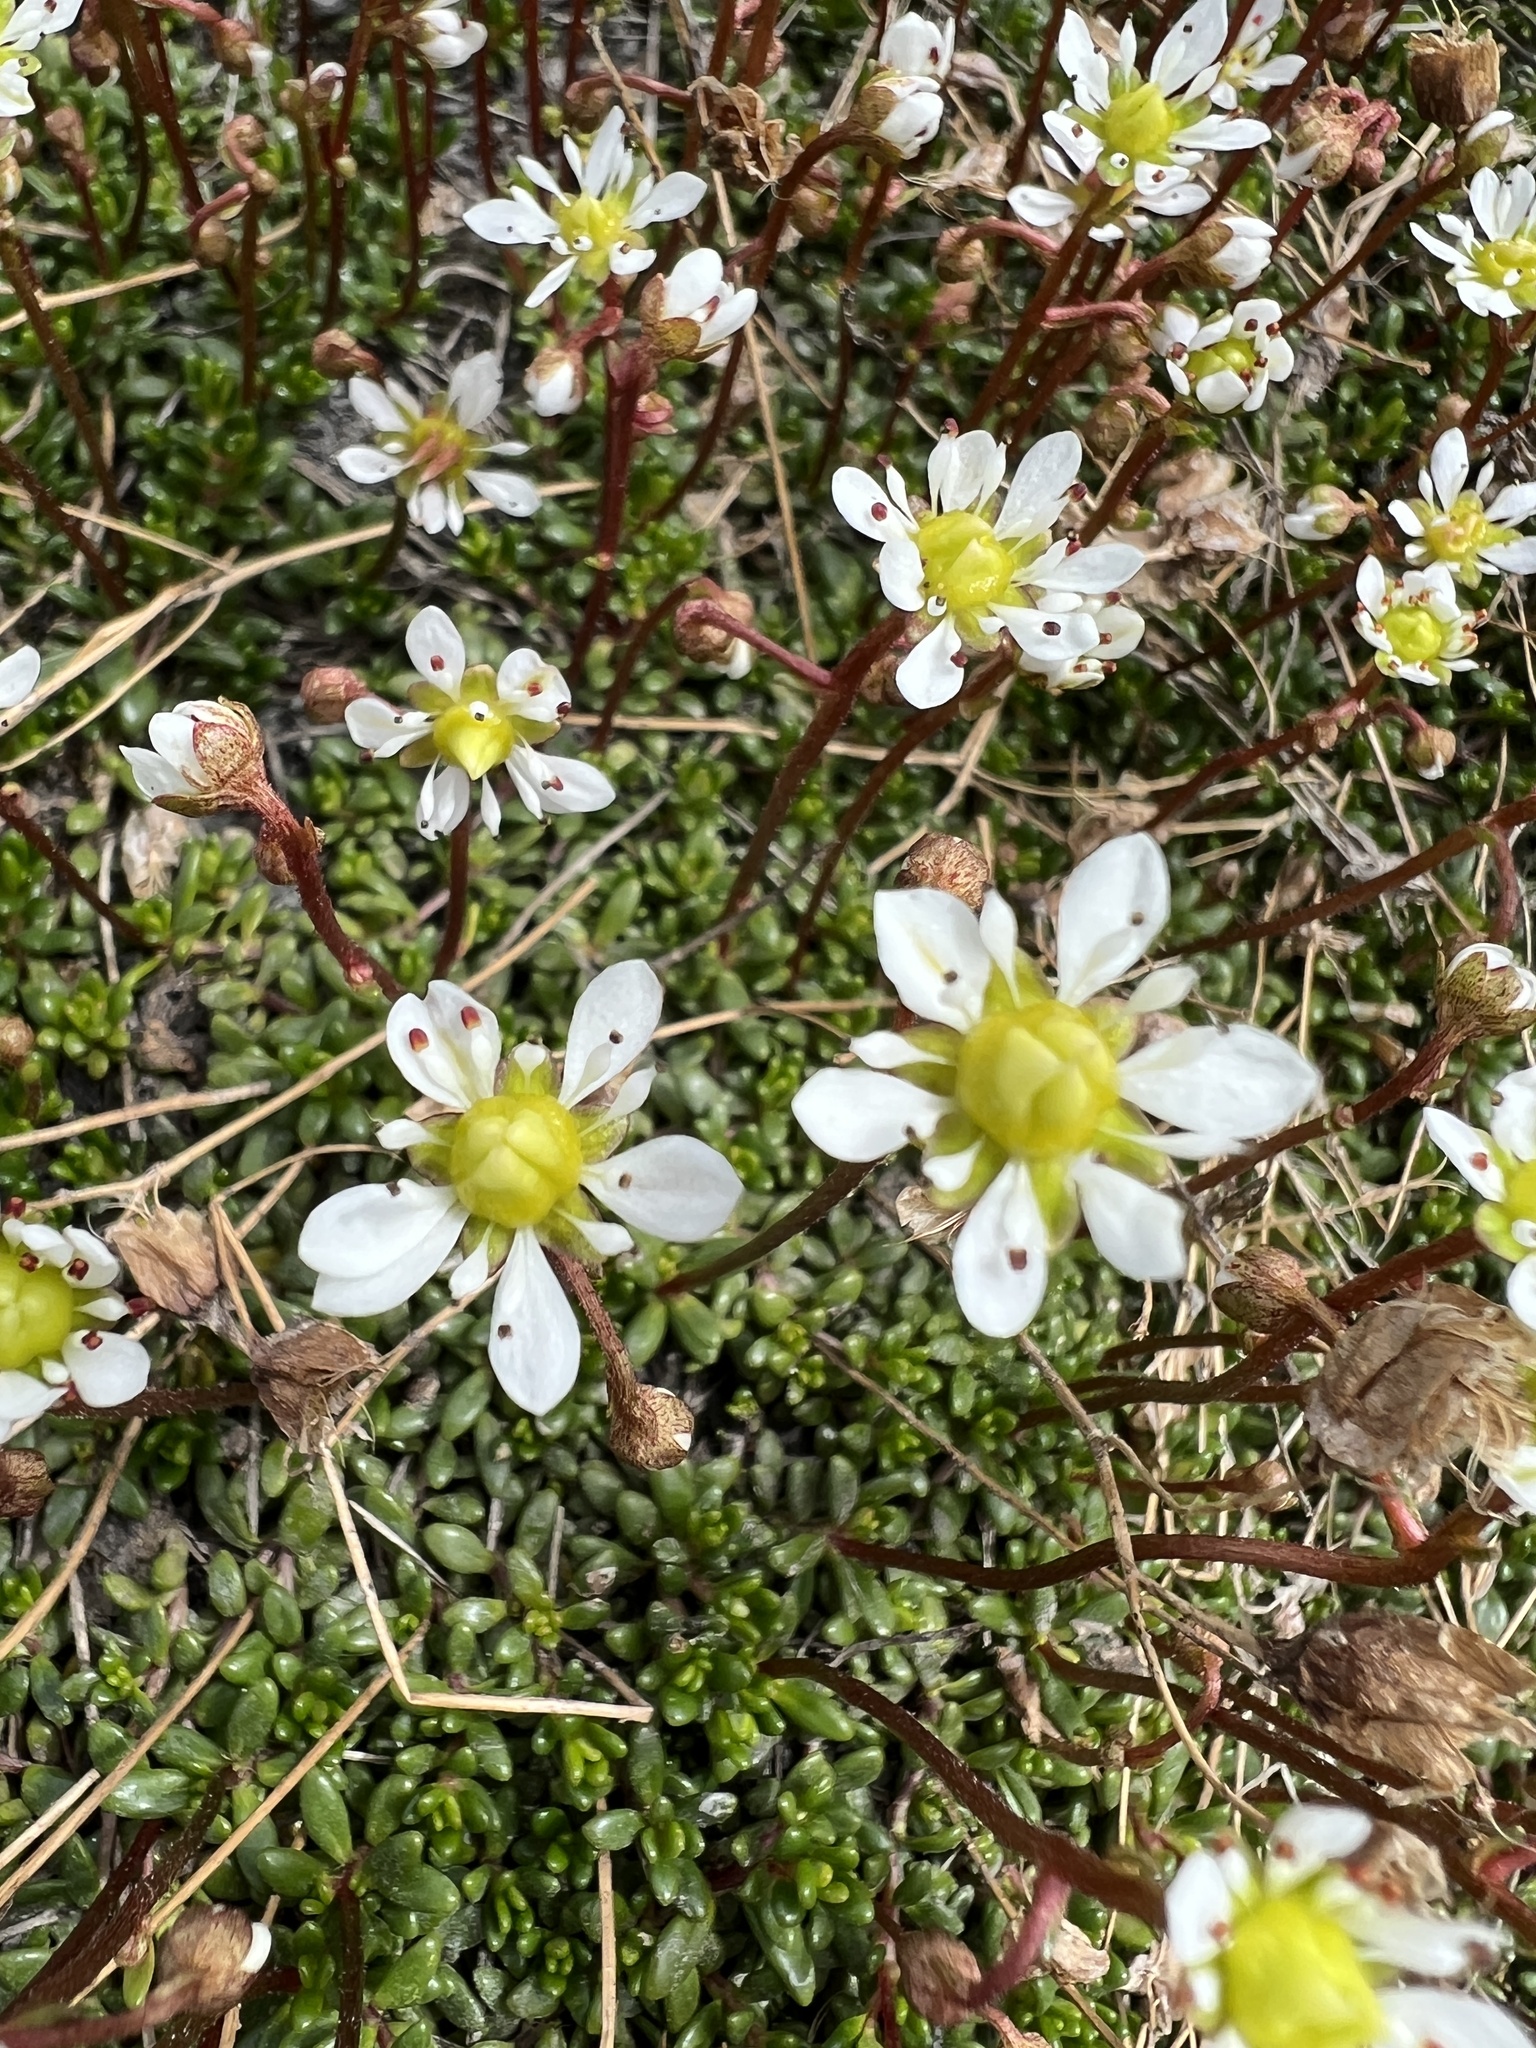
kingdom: Plantae
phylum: Tracheophyta
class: Magnoliopsida
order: Saxifragales
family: Saxifragaceae
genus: Micranthes
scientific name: Micranthes tolmiei
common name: Tolmie's saxifrage
